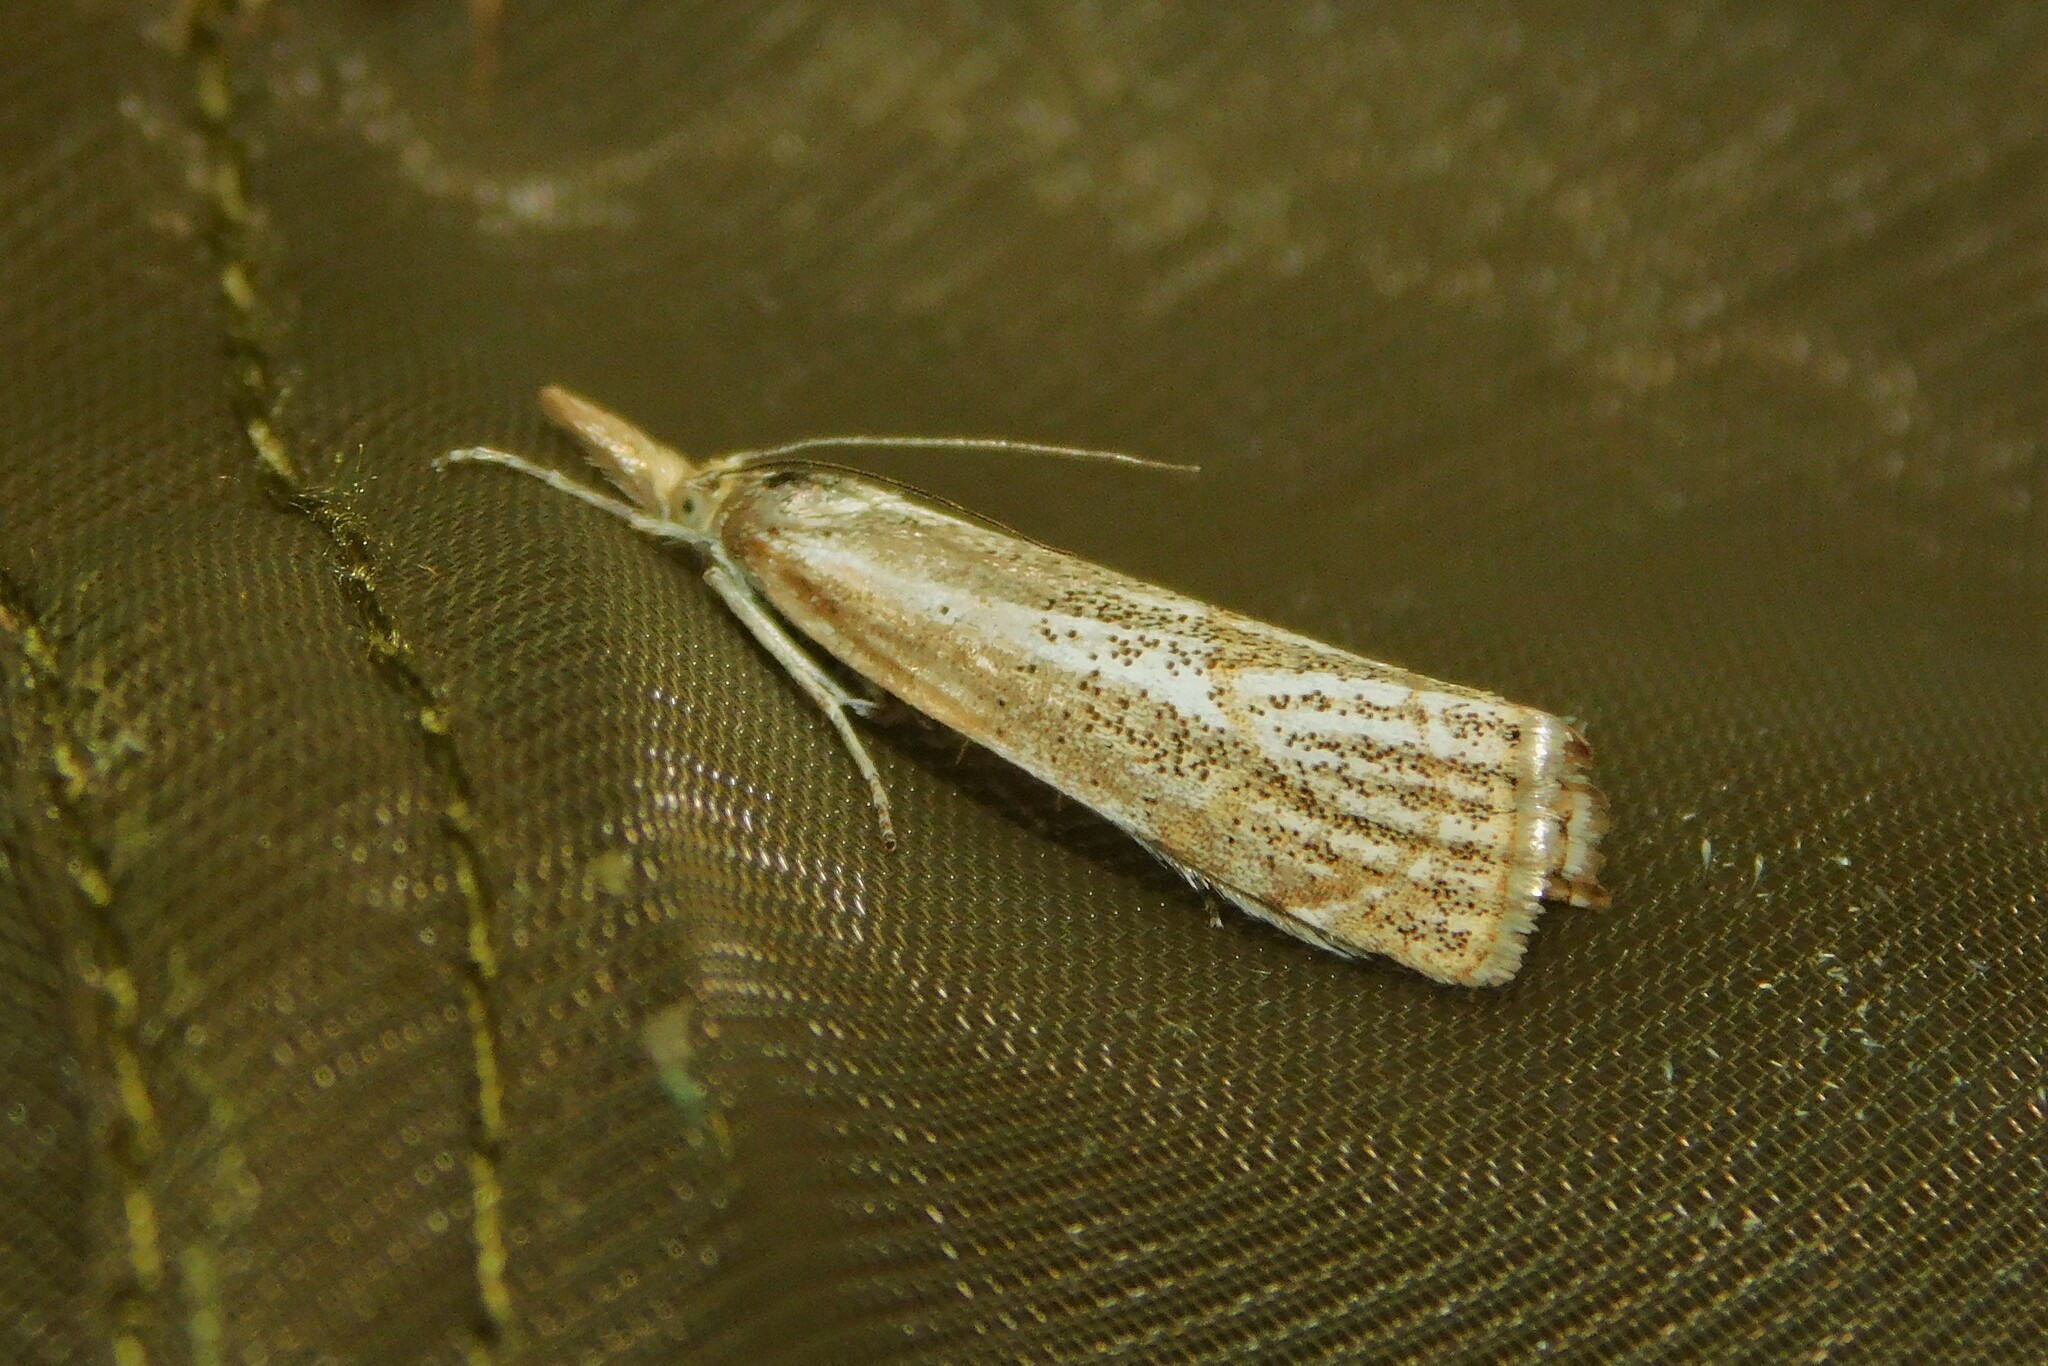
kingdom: Animalia
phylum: Arthropoda
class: Insecta
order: Lepidoptera
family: Crambidae
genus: Thisanotia
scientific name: Thisanotia chrysonuchella
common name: Powdered grass-veneer
